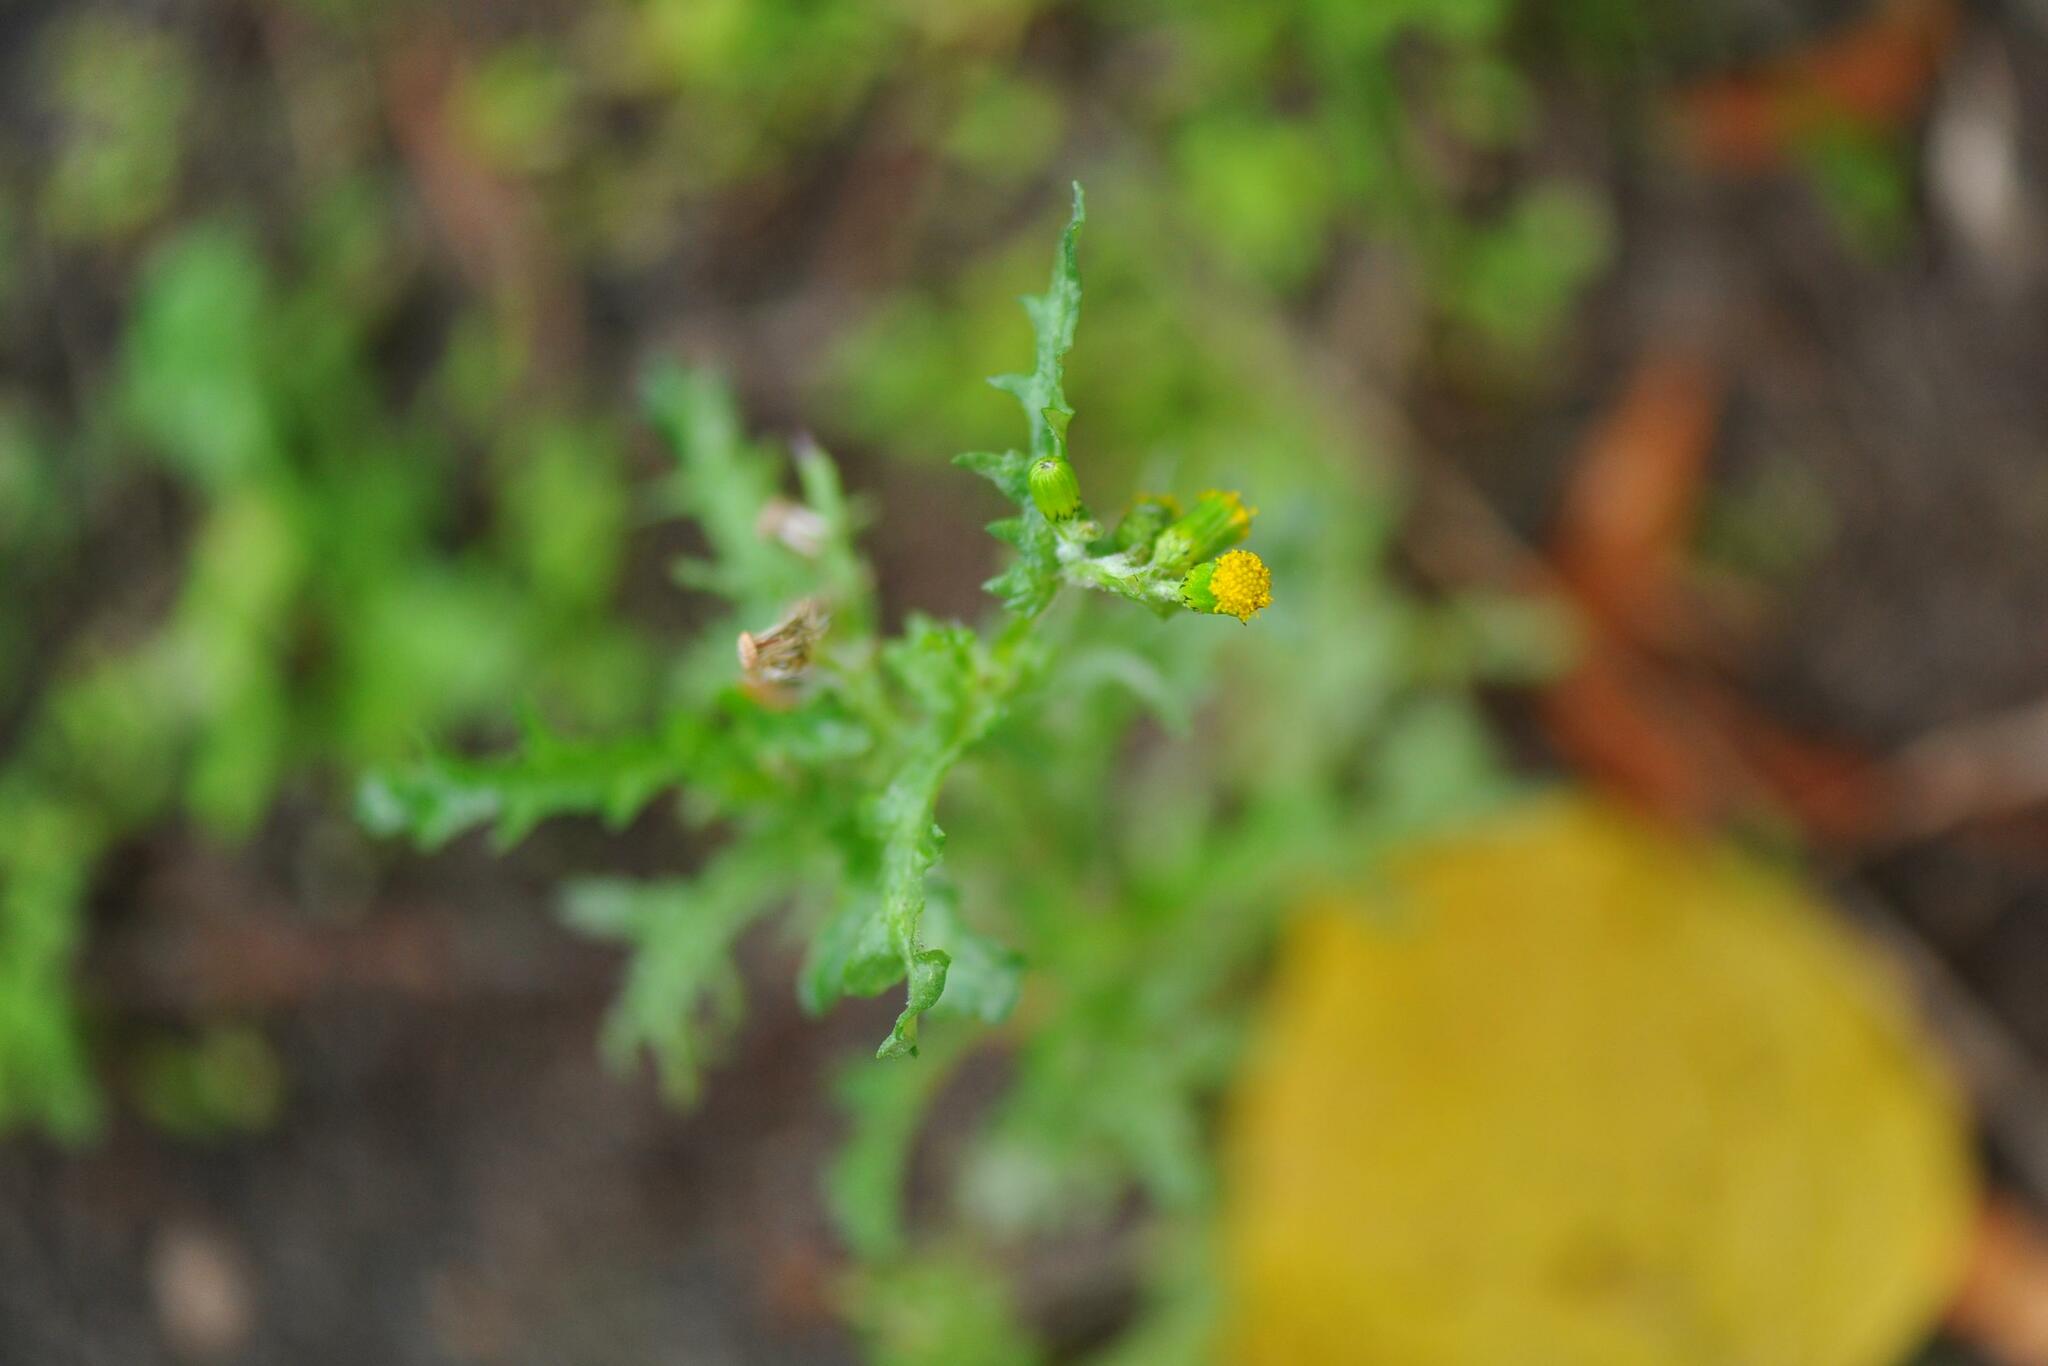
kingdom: Plantae
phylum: Tracheophyta
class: Magnoliopsida
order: Asterales
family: Asteraceae
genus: Senecio
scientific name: Senecio vulgaris
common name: Old-man-in-the-spring
